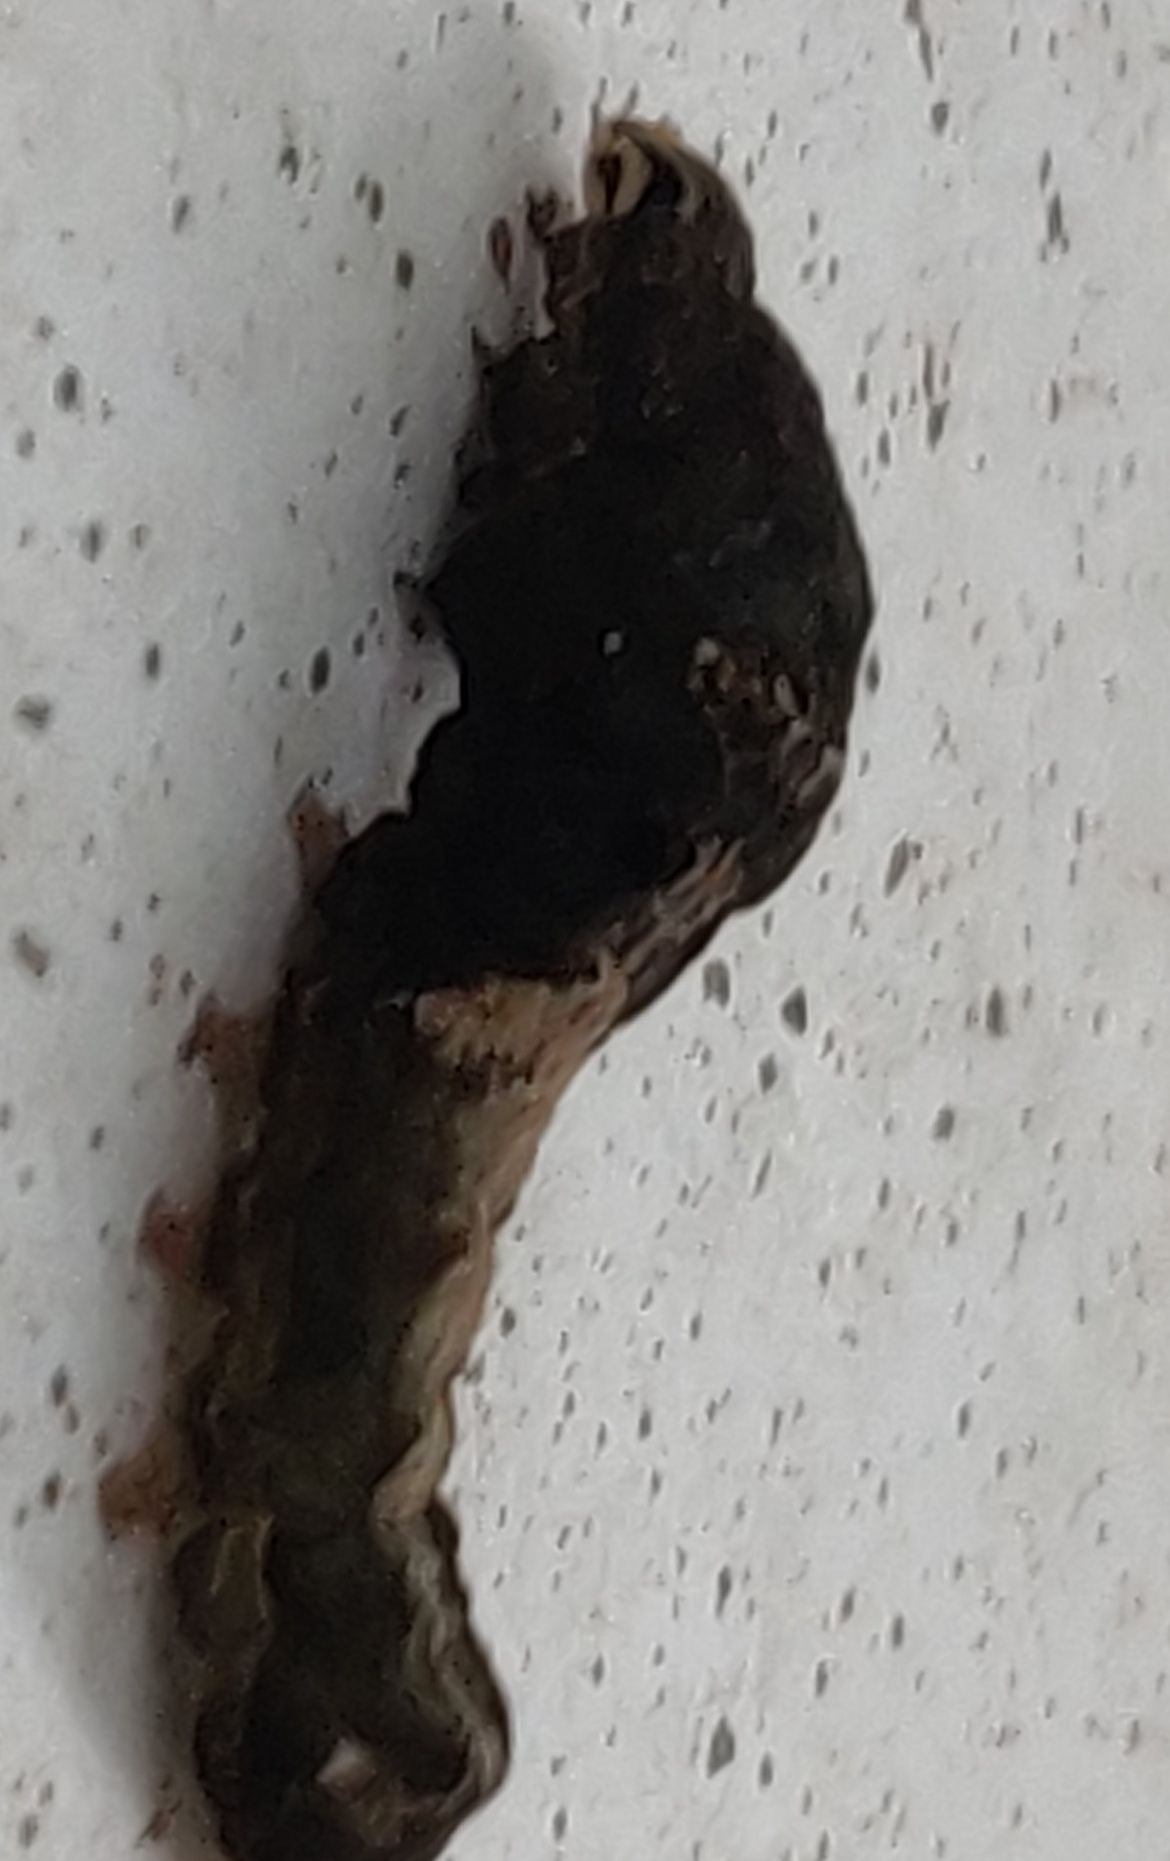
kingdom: Animalia
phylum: Arthropoda
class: Insecta
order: Lepidoptera
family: Noctuidae
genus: Elaphria
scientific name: Elaphria versicolor
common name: Fir harlequin
